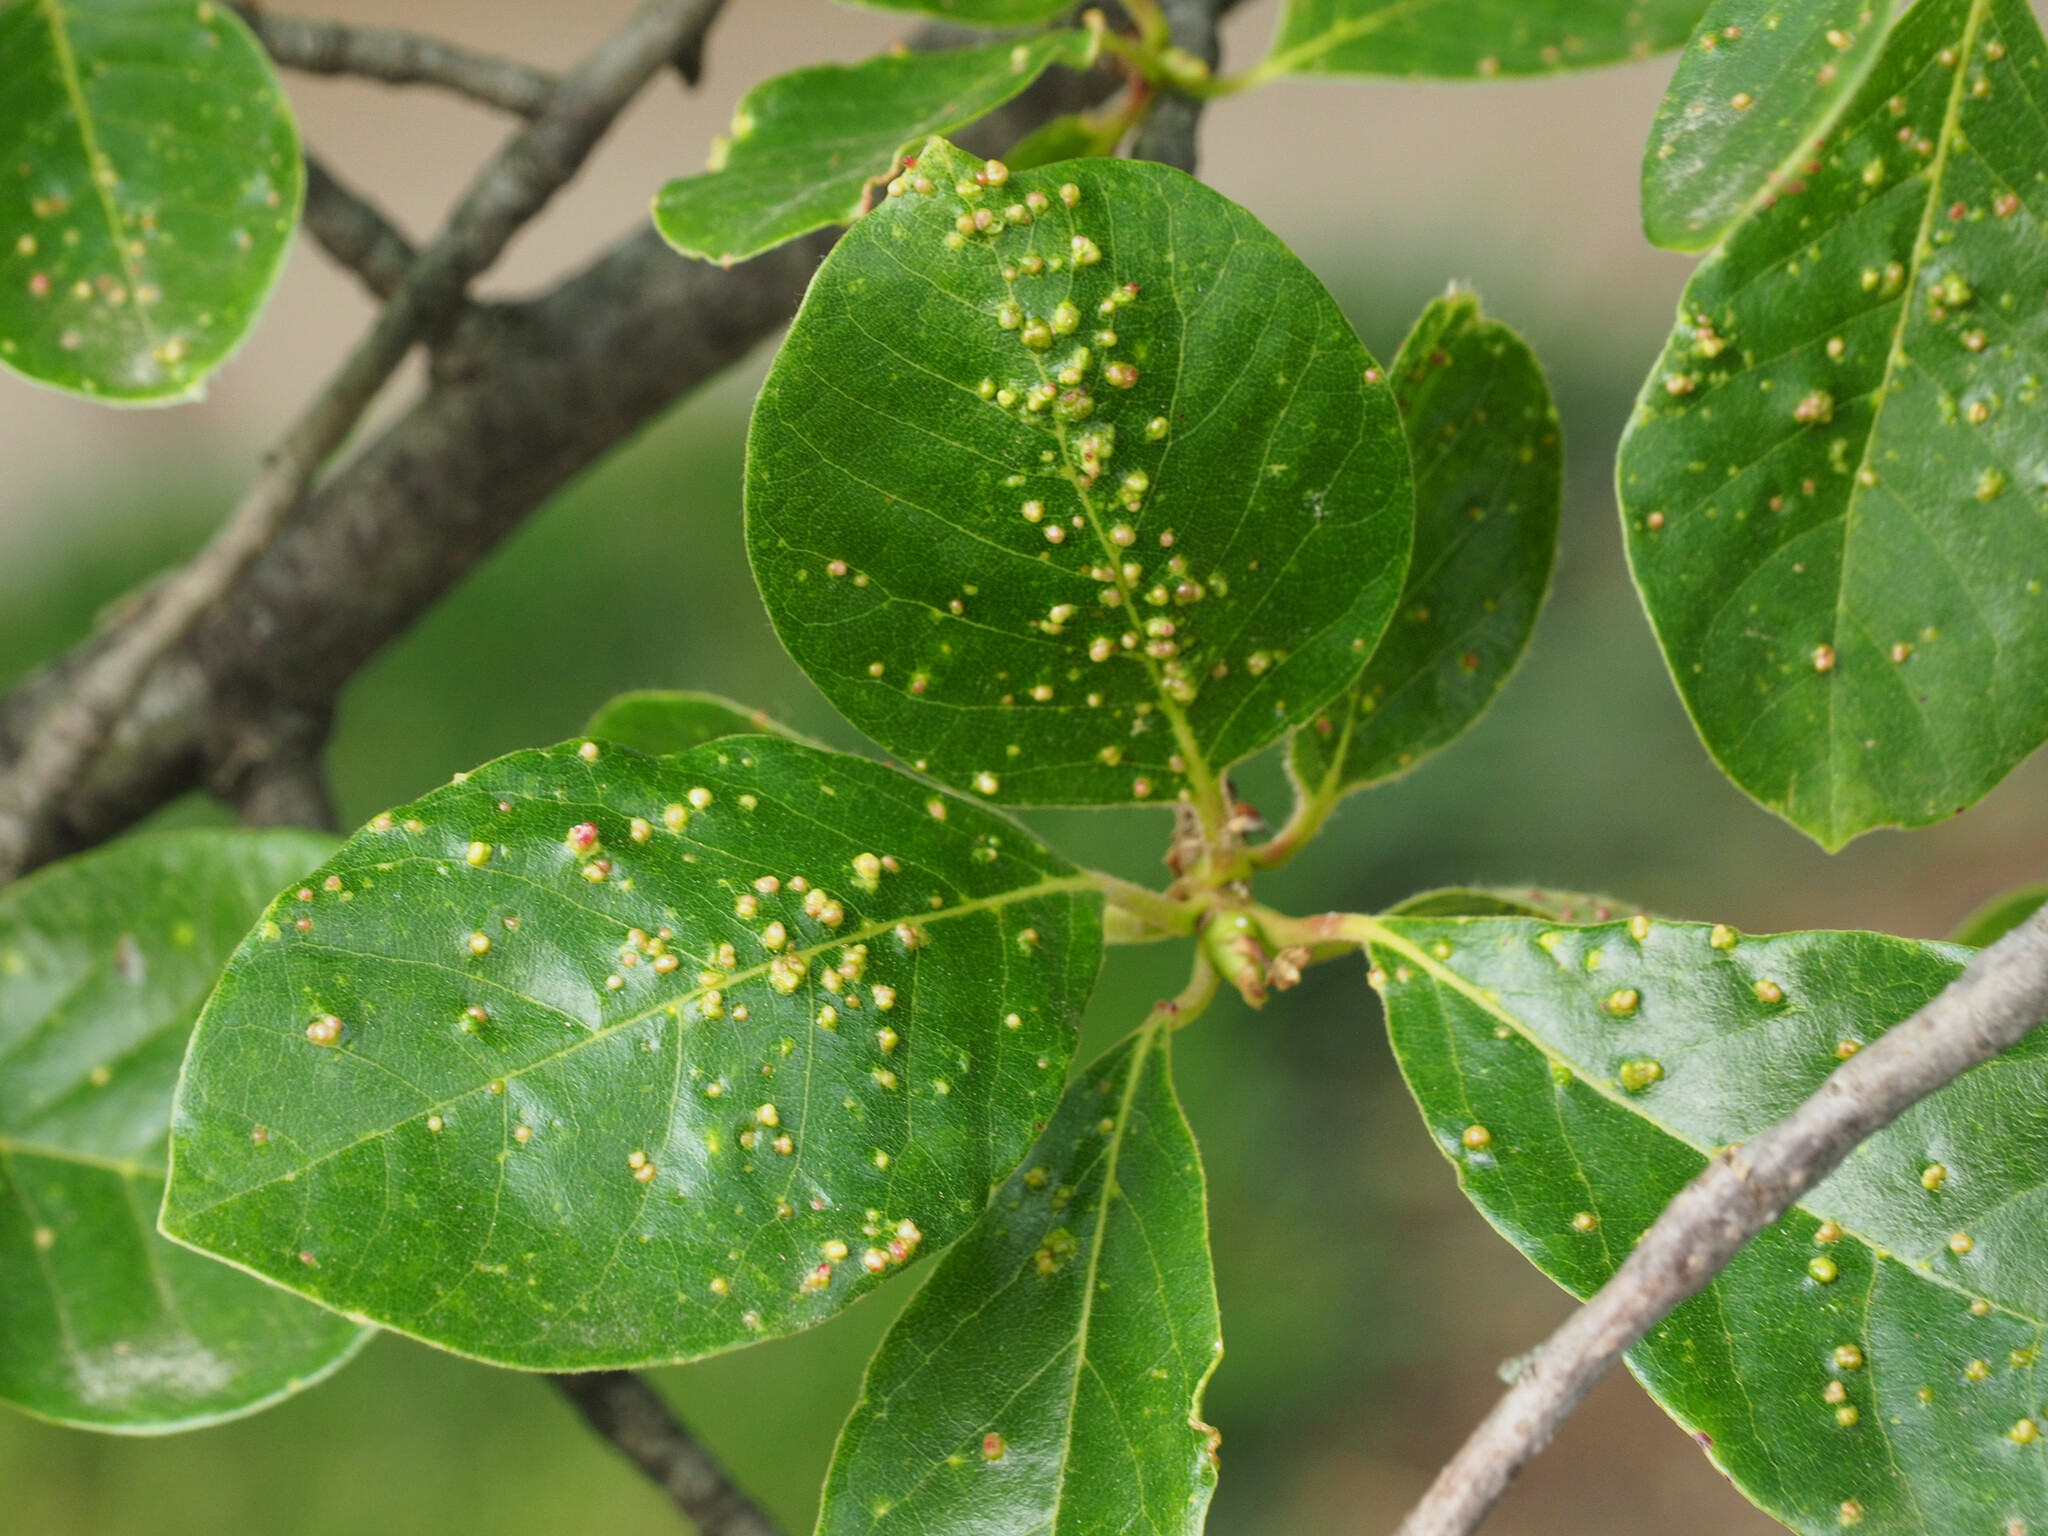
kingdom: Animalia
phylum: Arthropoda
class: Arachnida
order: Trombidiformes
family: Eriophyidae
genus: Aceria
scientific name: Aceria
